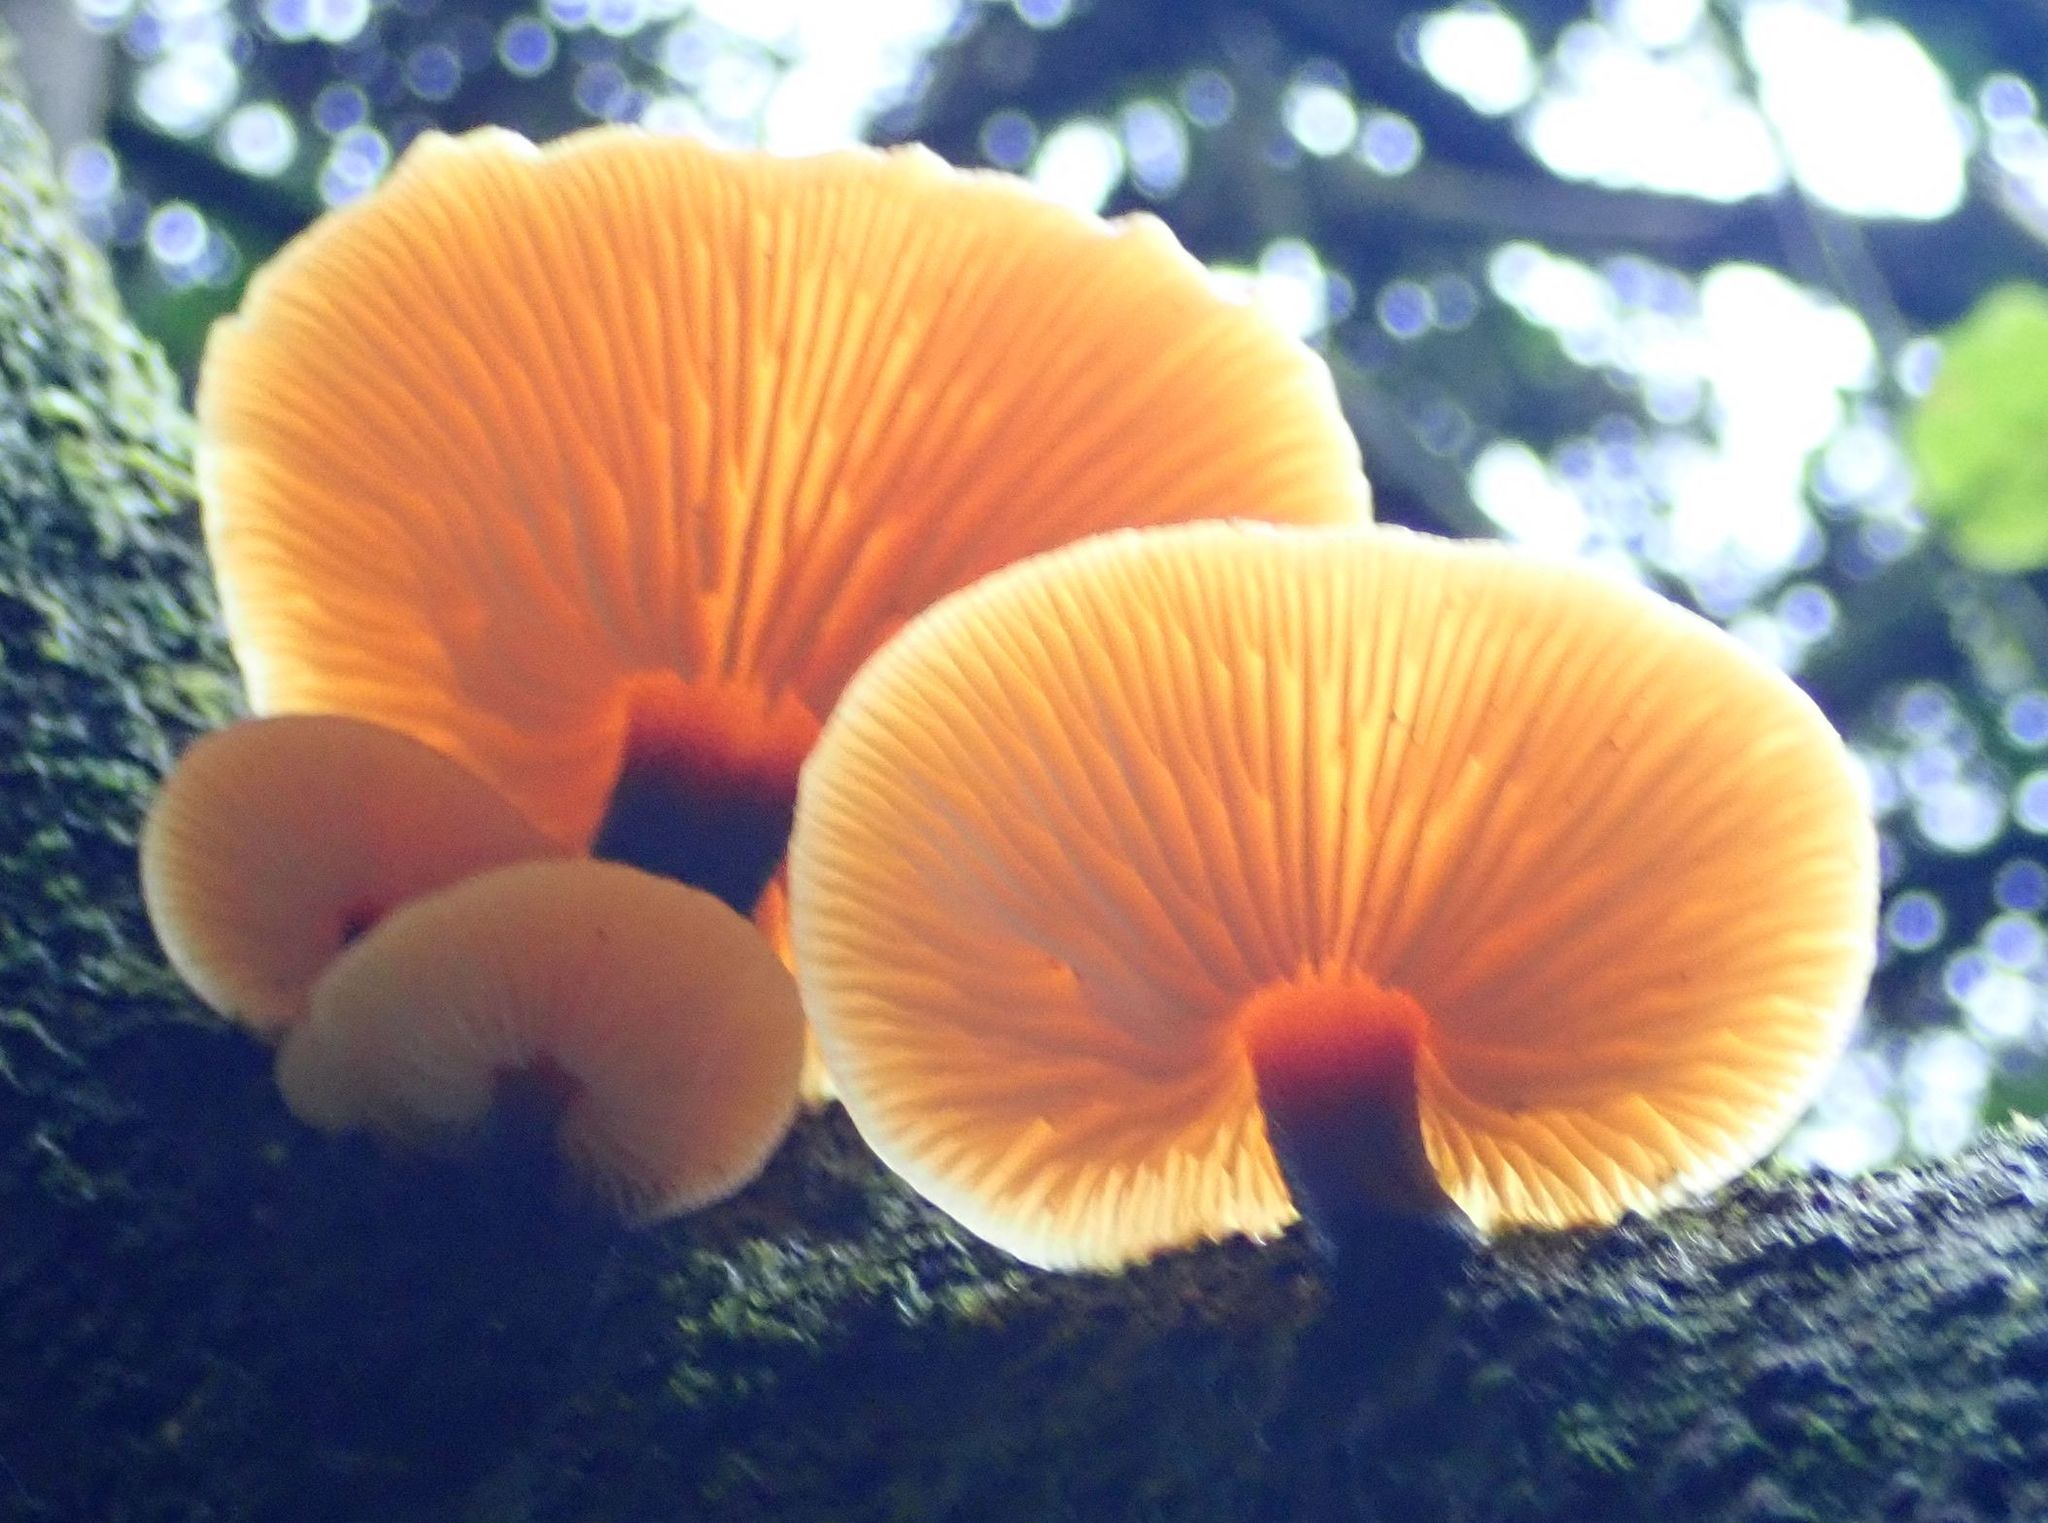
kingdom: Fungi
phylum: Basidiomycota
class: Agaricomycetes
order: Agaricales
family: Physalacriaceae
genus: Flammulina
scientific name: Flammulina velutipes
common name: Velvet shank
